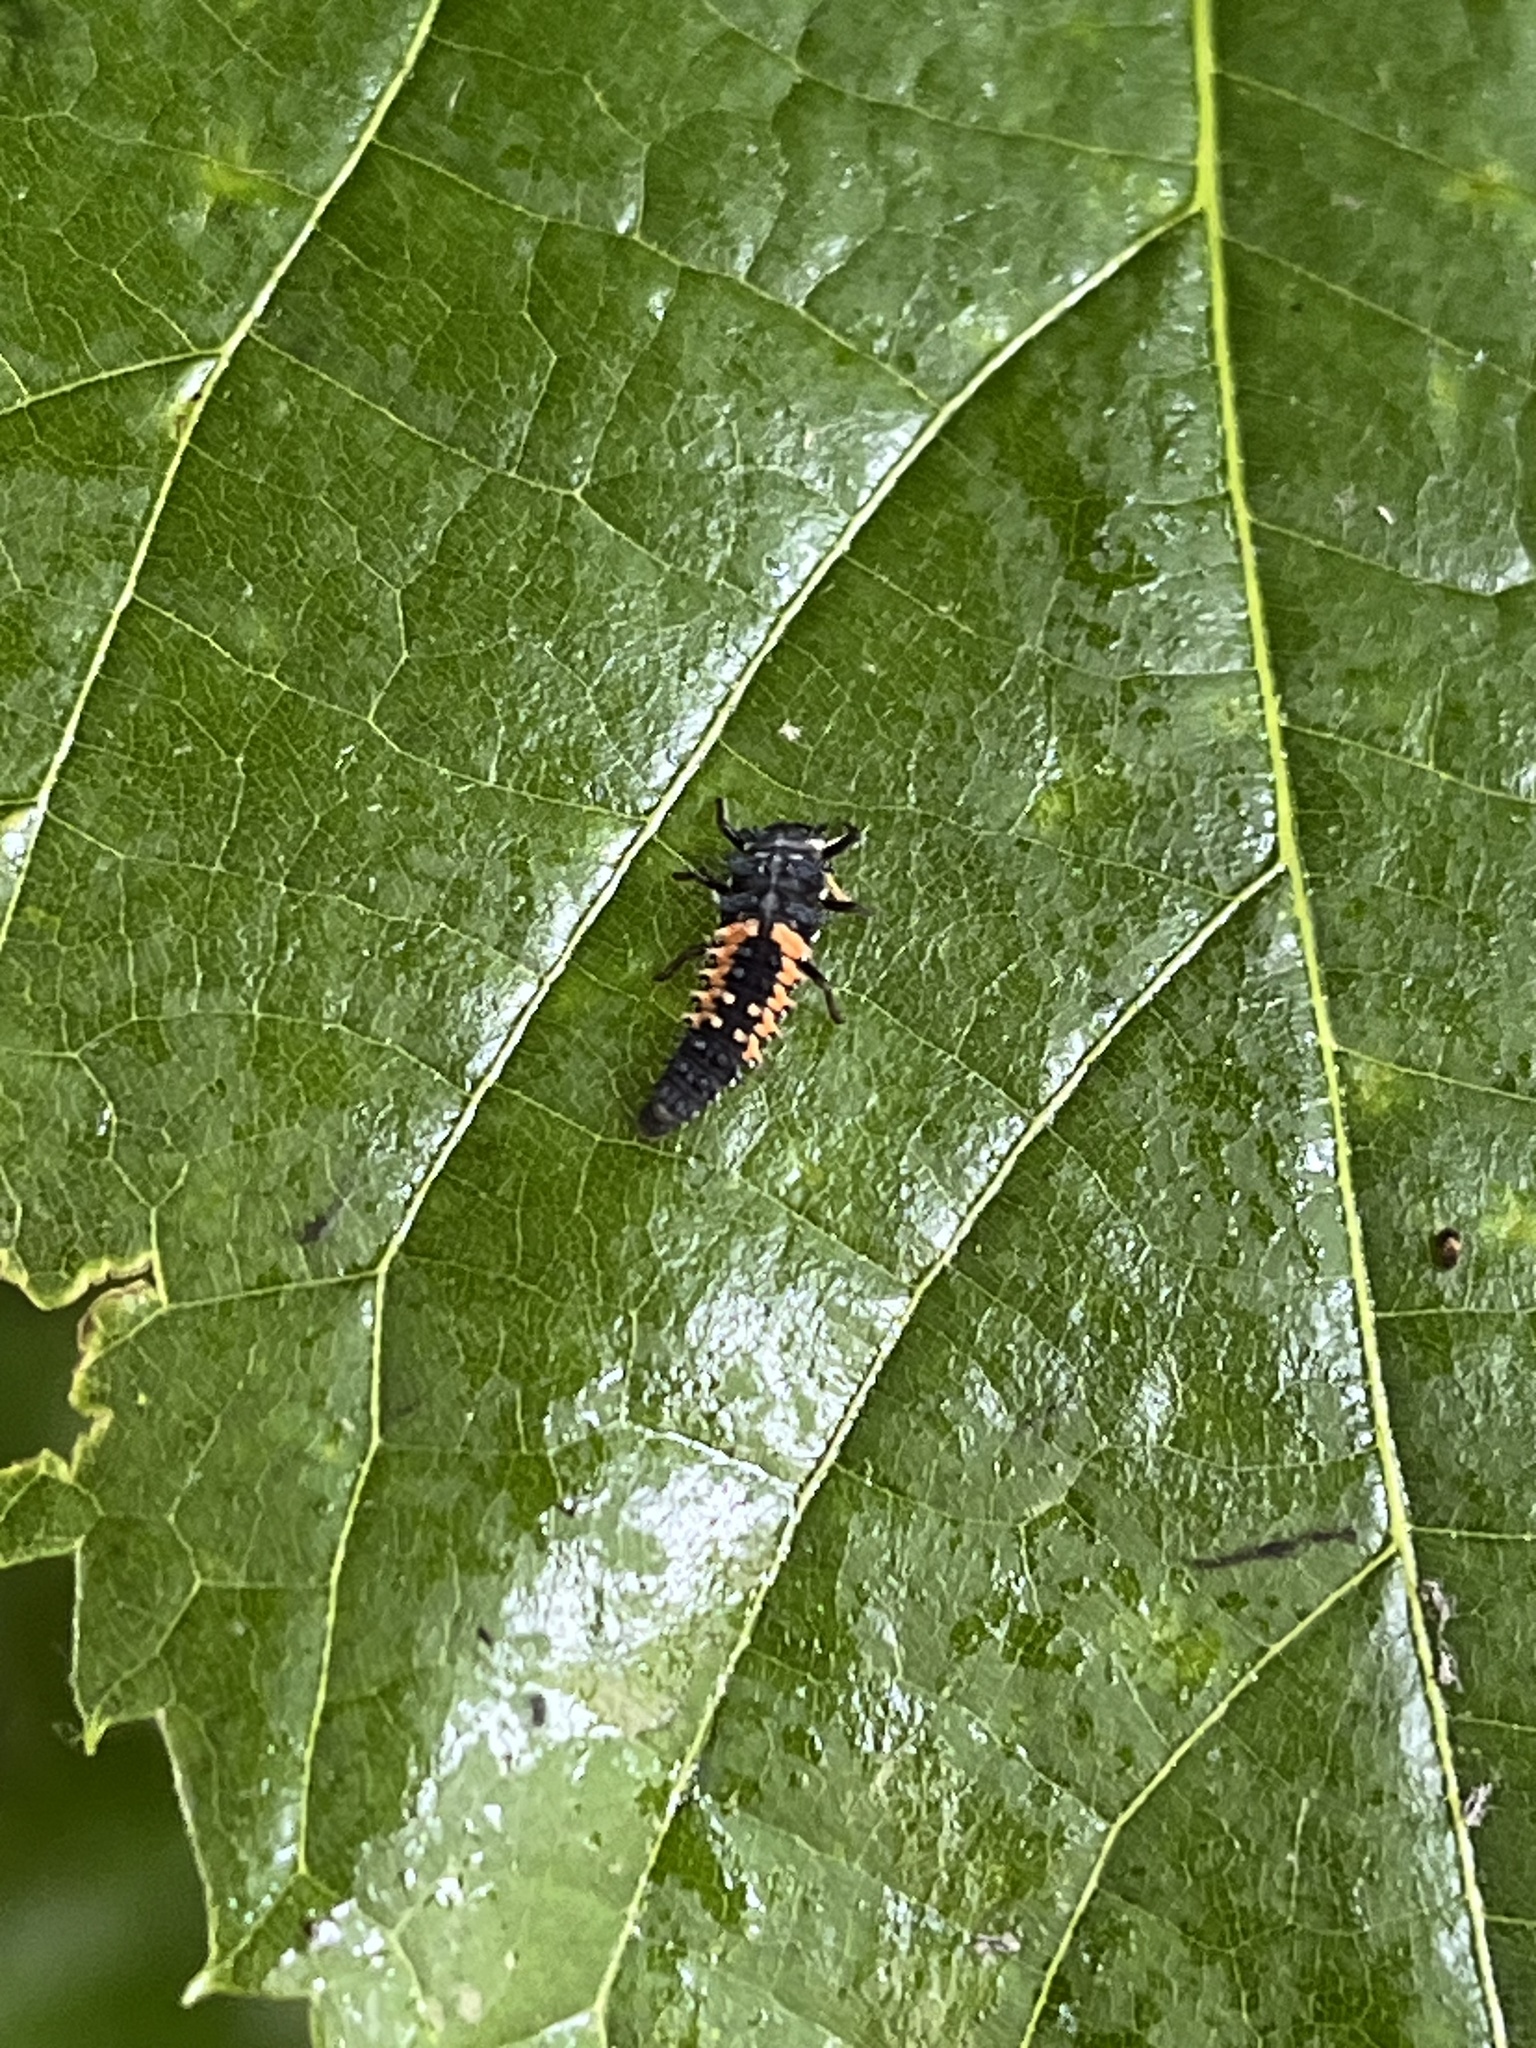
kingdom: Animalia
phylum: Arthropoda
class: Insecta
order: Coleoptera
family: Coccinellidae
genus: Harmonia
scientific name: Harmonia axyridis
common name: Harlequin ladybird
